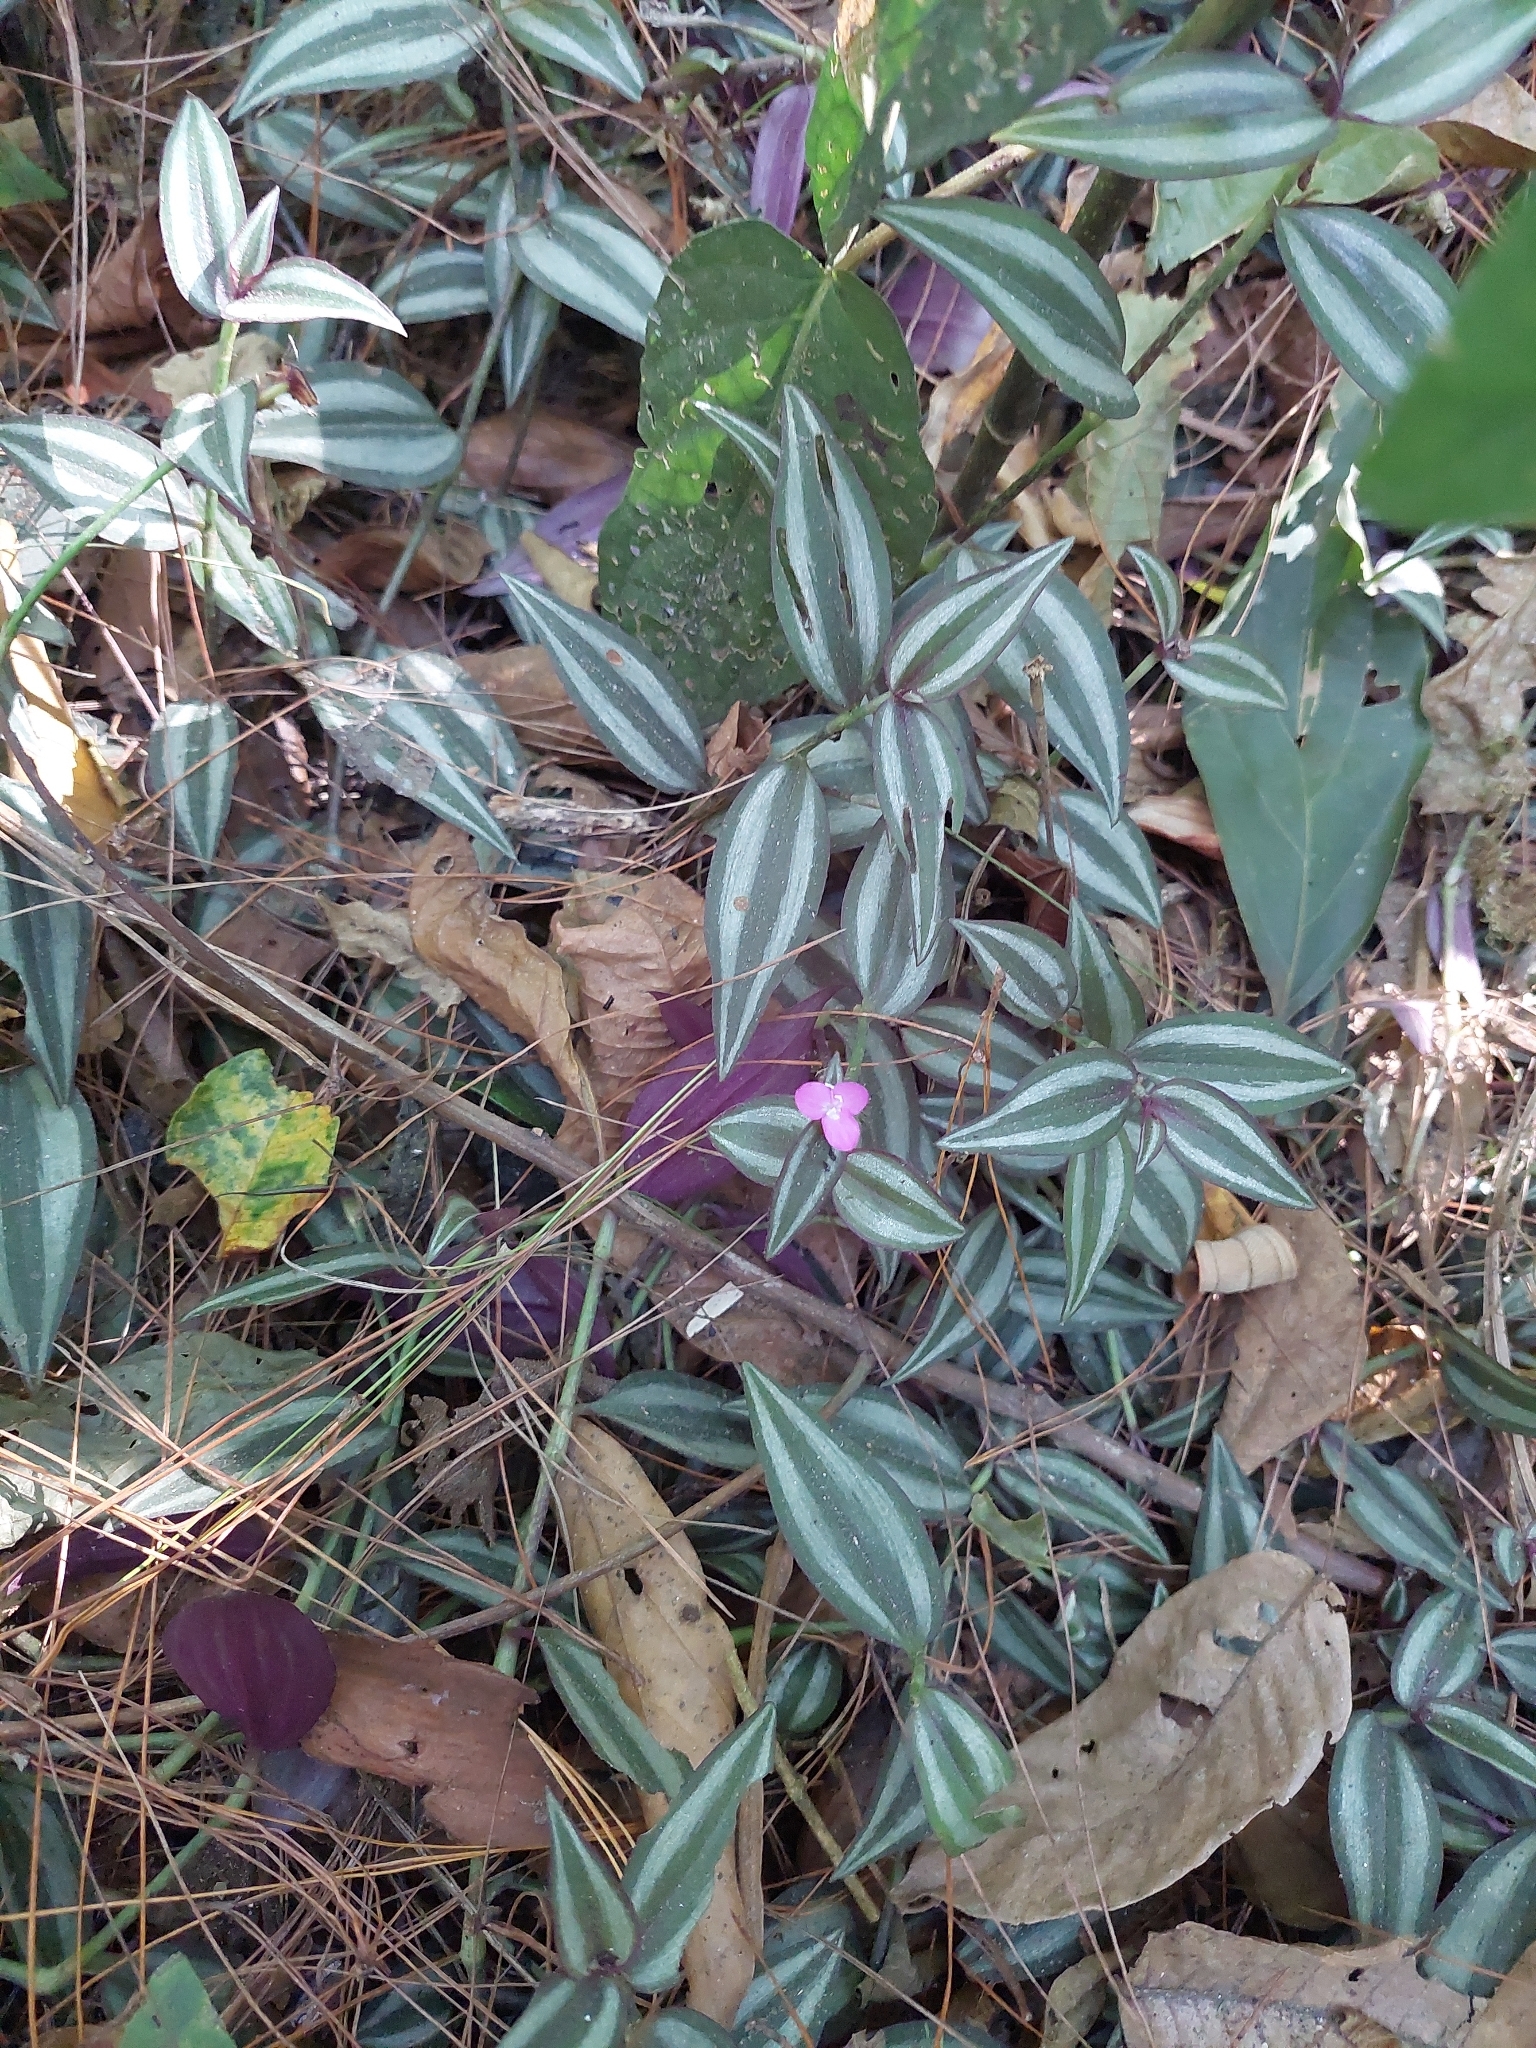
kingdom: Plantae
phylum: Tracheophyta
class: Liliopsida
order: Commelinales
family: Commelinaceae
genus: Tradescantia
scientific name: Tradescantia zebrina
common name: Inchplant
